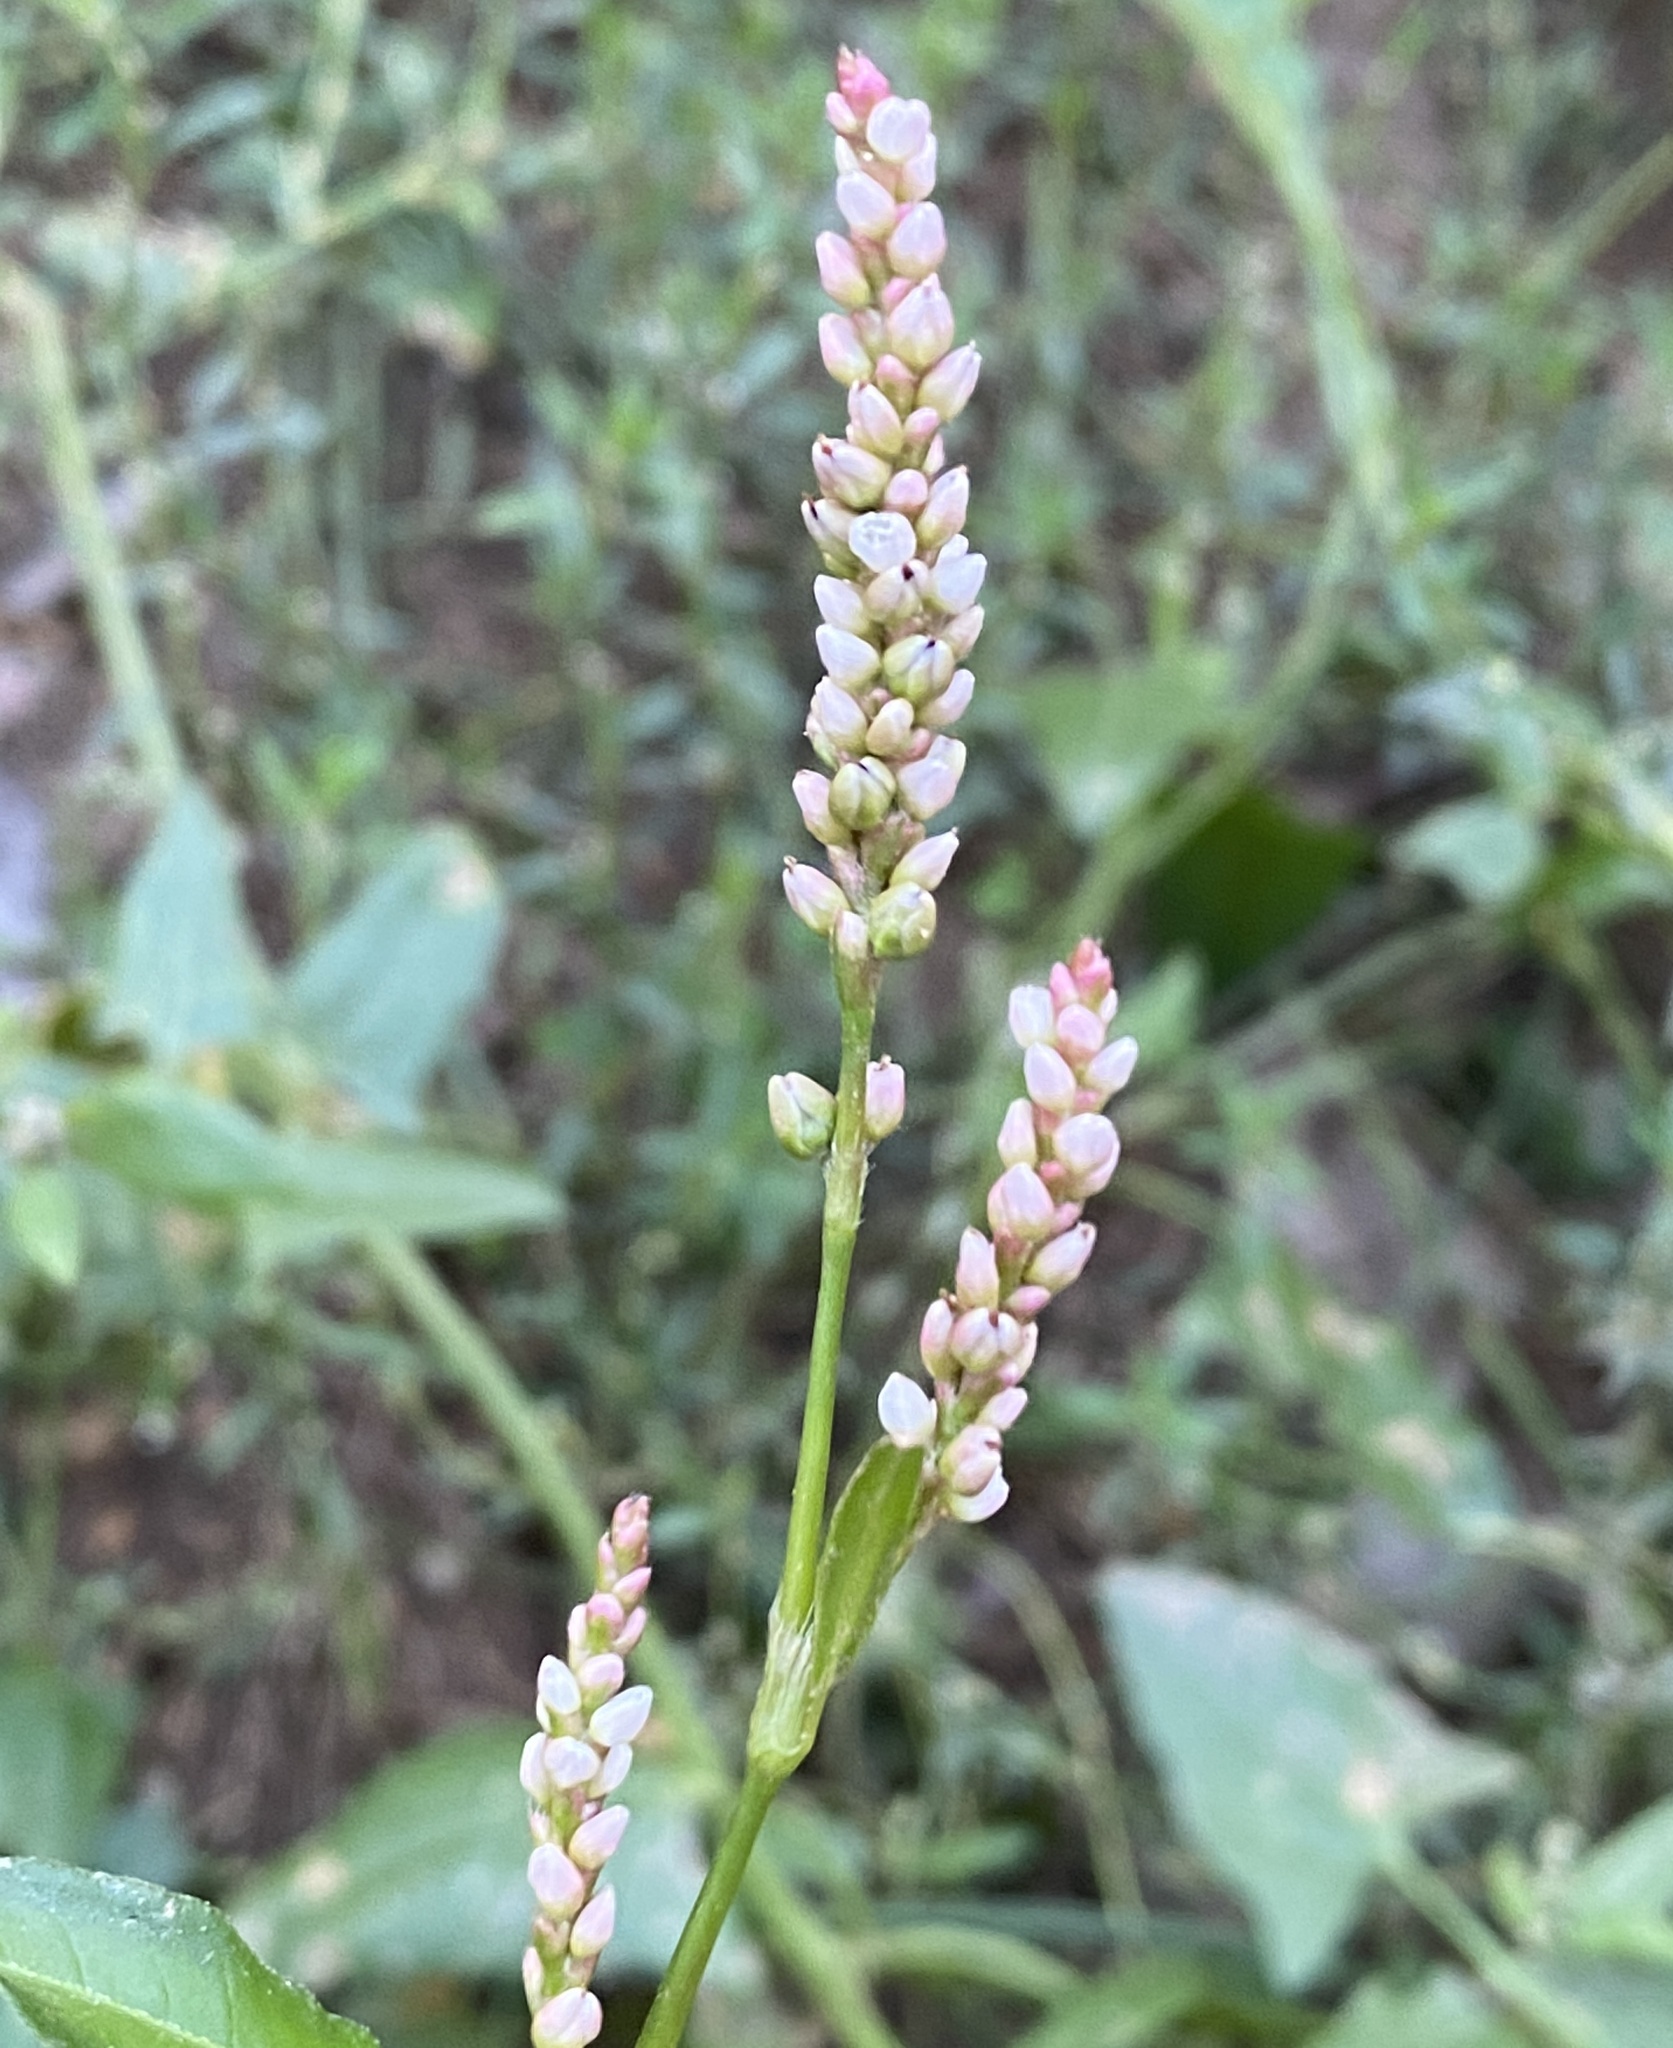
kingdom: Plantae
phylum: Tracheophyta
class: Magnoliopsida
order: Caryophyllales
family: Polygonaceae
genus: Persicaria
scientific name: Persicaria maculosa
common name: Redshank
